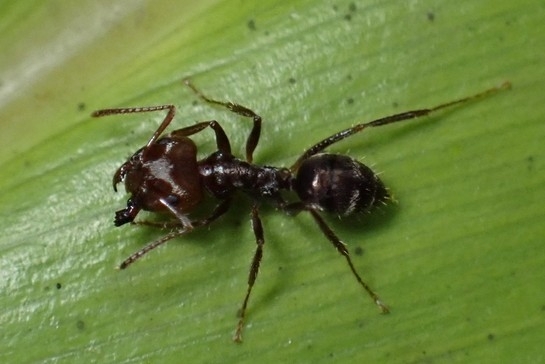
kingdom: Animalia
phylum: Arthropoda
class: Insecta
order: Hymenoptera
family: Formicidae
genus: Notoncus
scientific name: Notoncus capitatus
